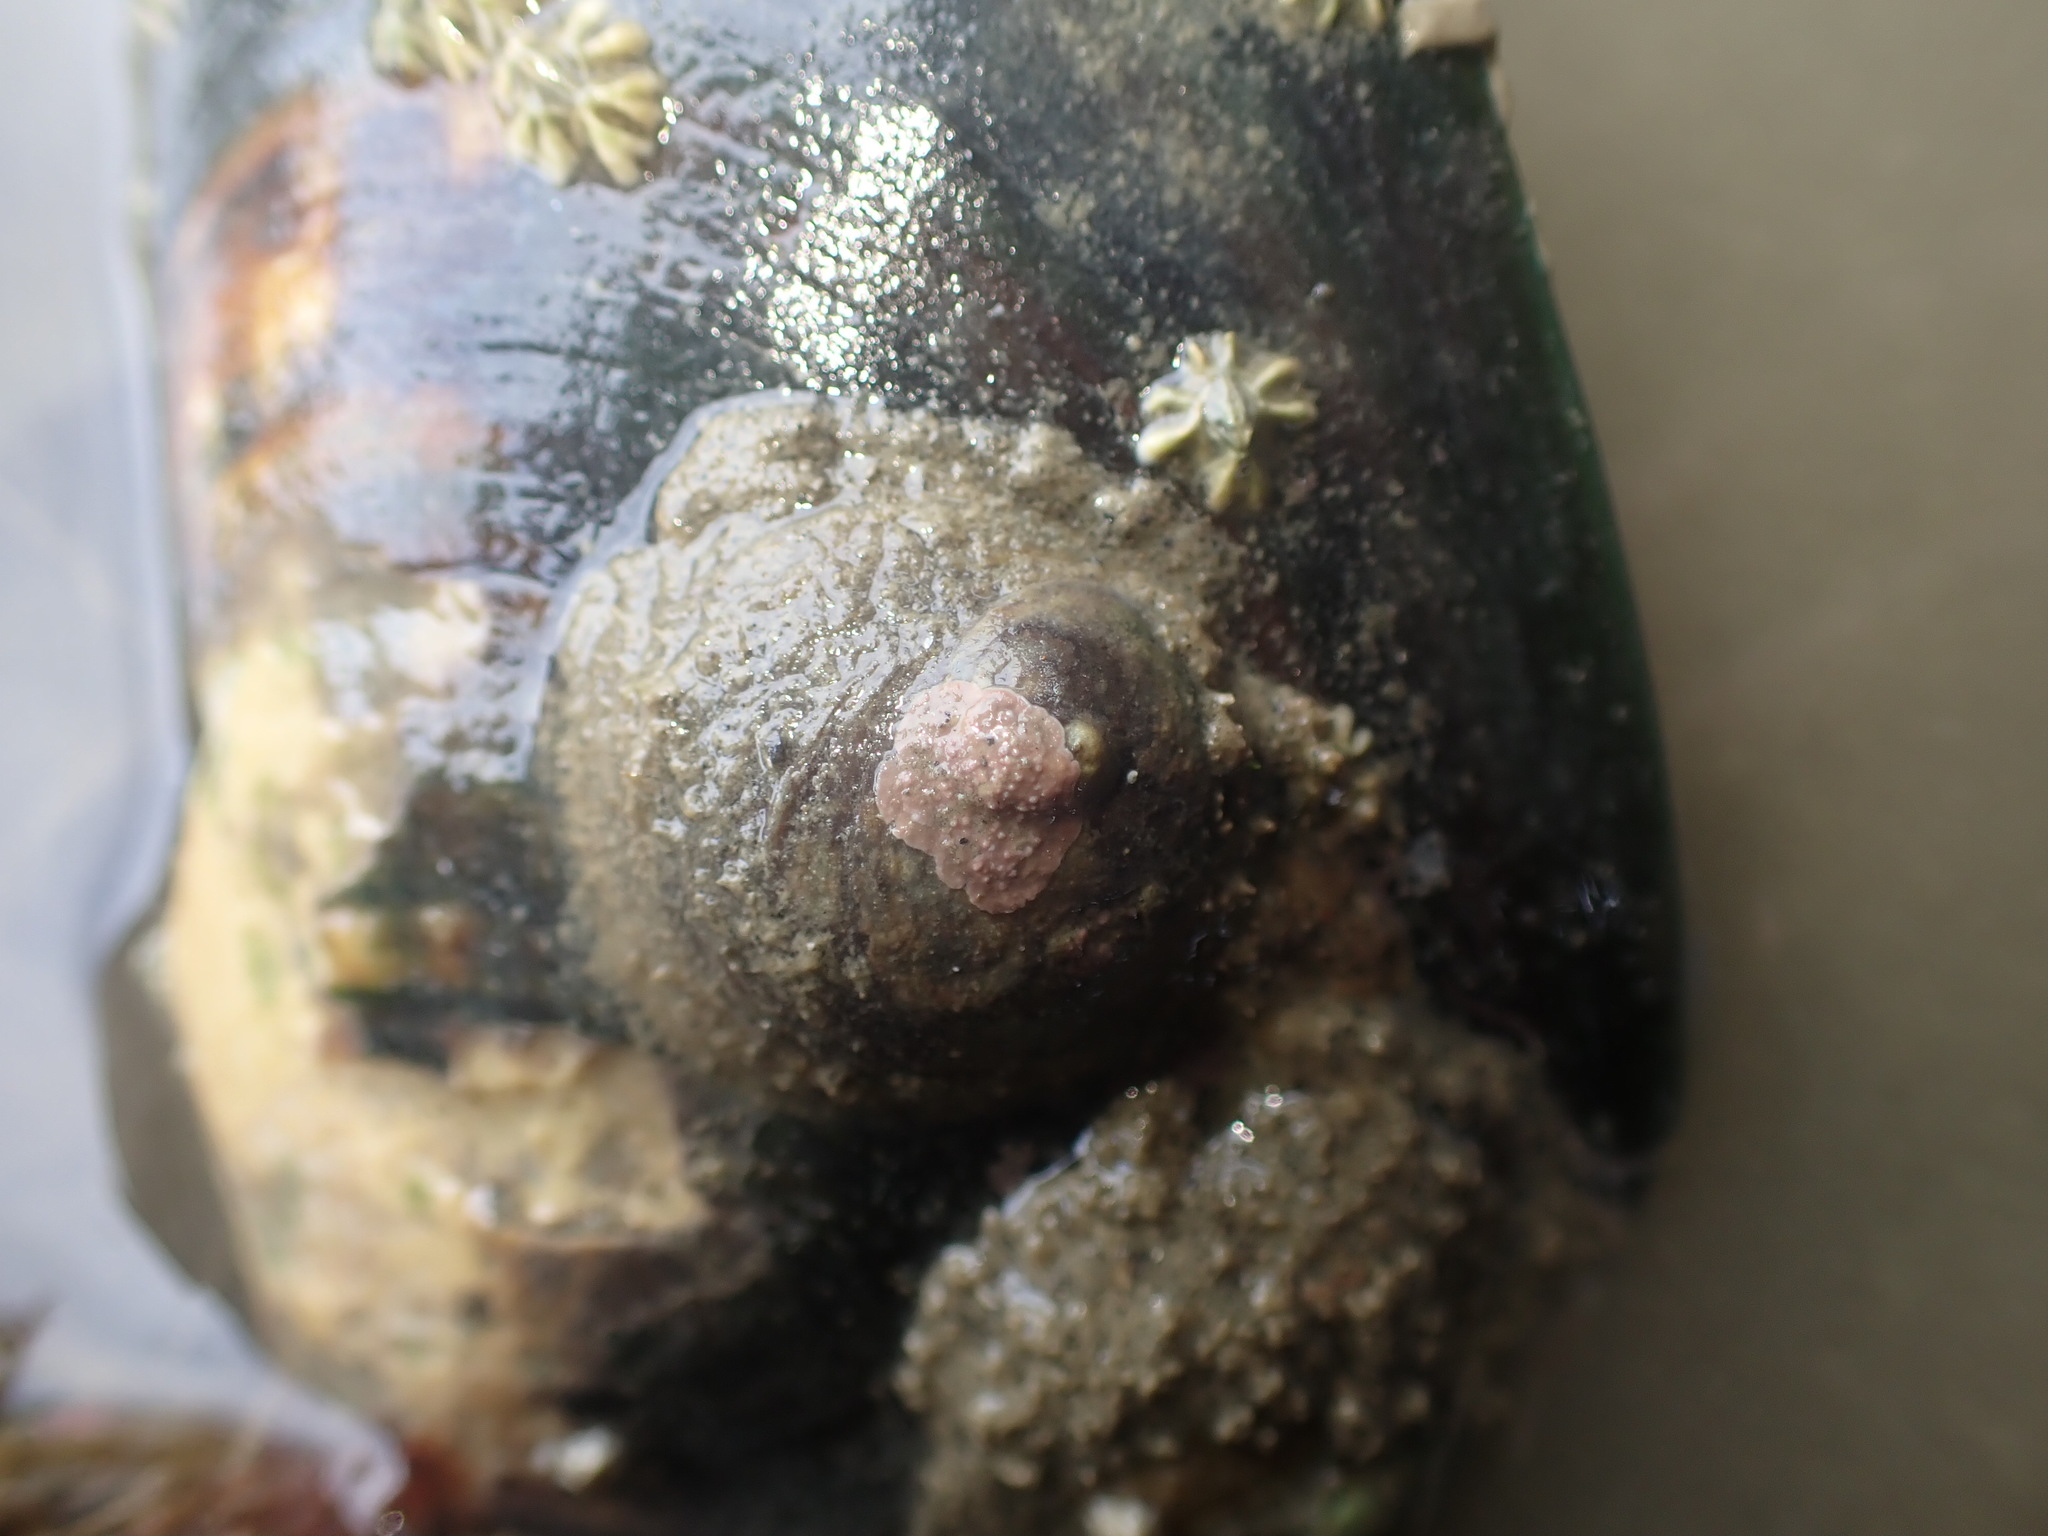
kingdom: Animalia
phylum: Mollusca
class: Gastropoda
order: Littorinimorpha
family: Calyptraeidae
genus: Sigapatella
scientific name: Sigapatella novaezelandiae
